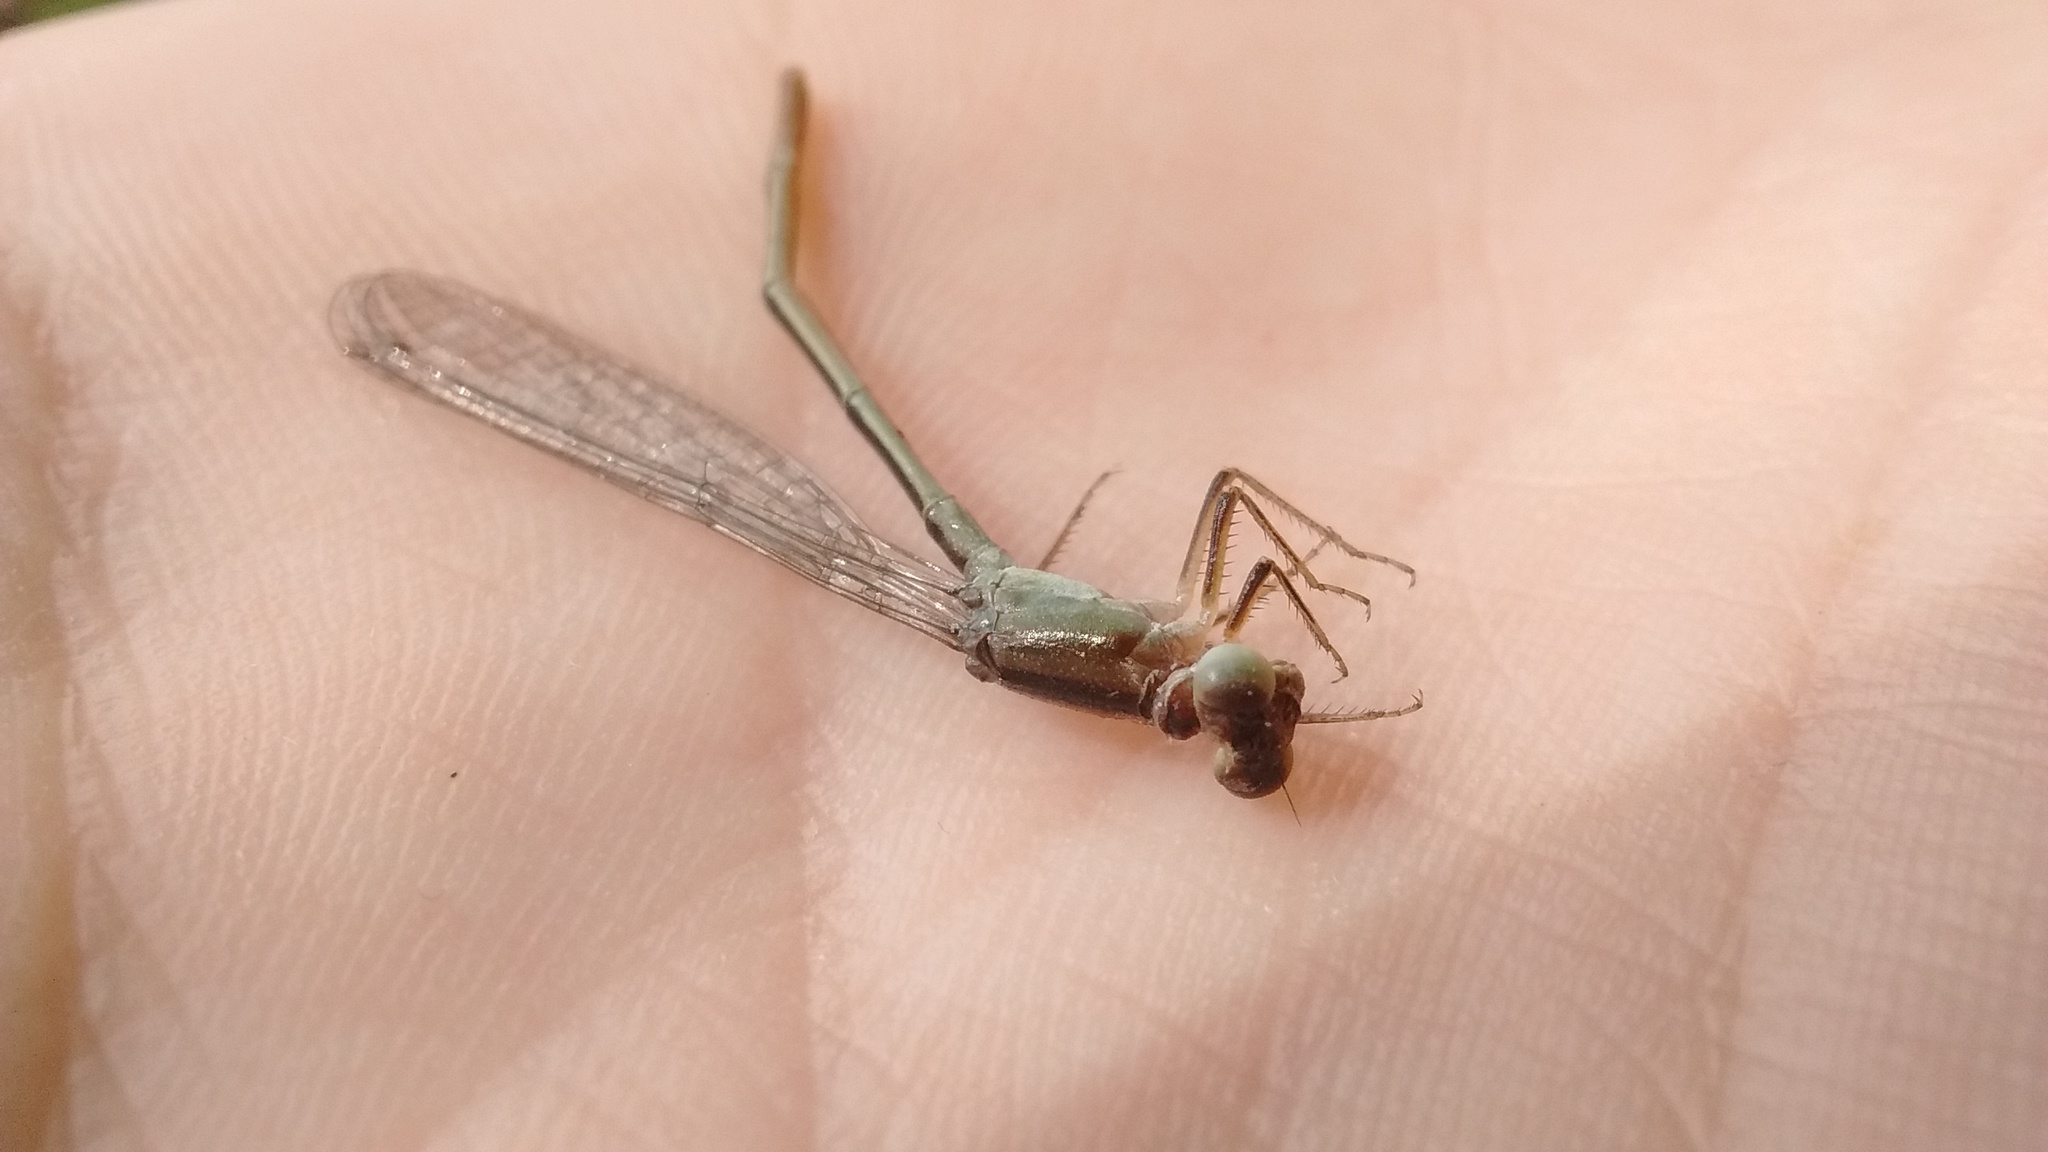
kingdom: Animalia
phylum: Arthropoda
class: Insecta
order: Odonata
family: Coenagrionidae
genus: Ischnura
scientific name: Ischnura fluviatilis
